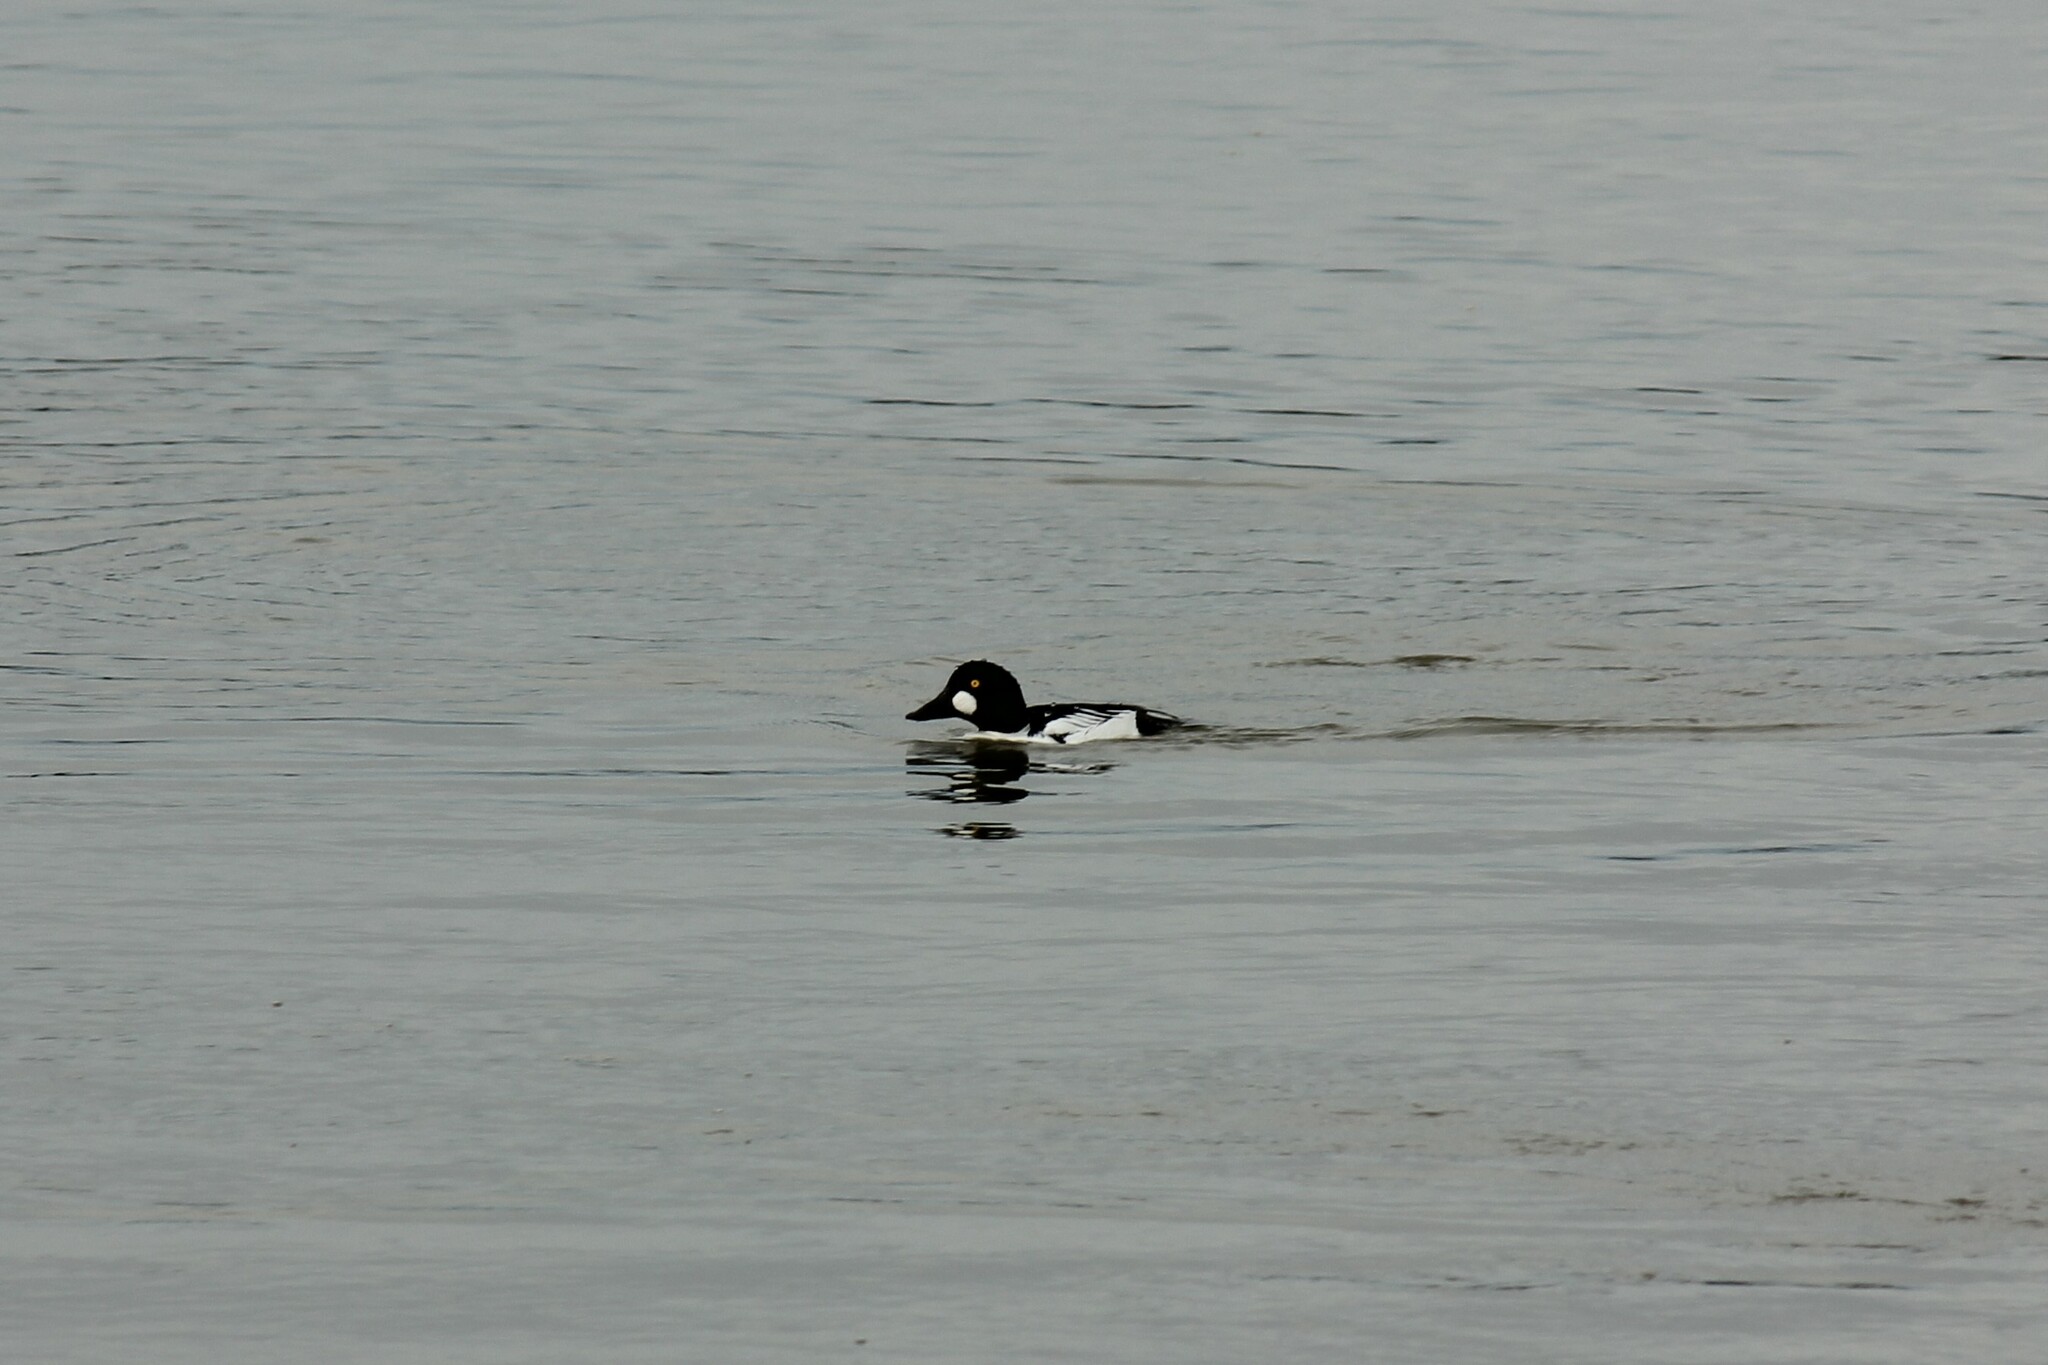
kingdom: Animalia
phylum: Chordata
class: Aves
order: Anseriformes
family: Anatidae
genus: Bucephala
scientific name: Bucephala clangula
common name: Common goldeneye
